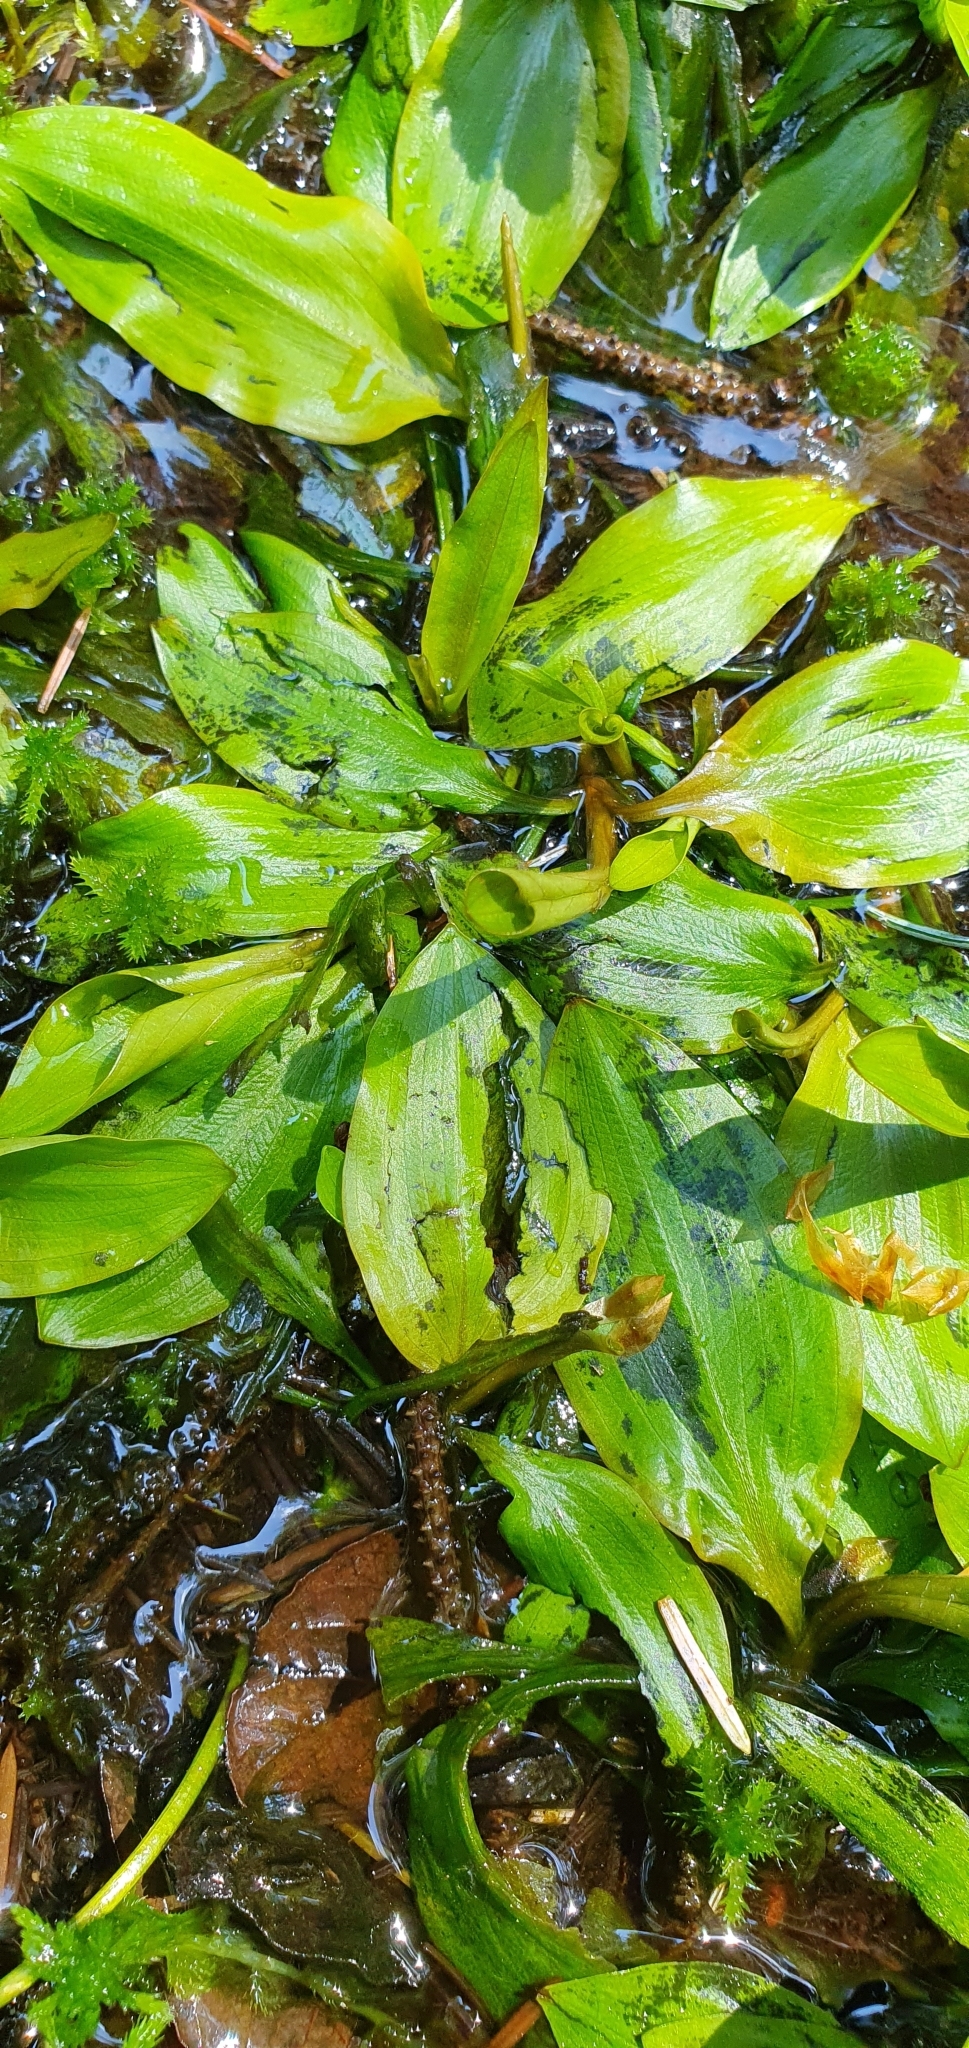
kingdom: Plantae
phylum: Tracheophyta
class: Liliopsida
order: Alismatales
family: Potamogetonaceae
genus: Potamogeton
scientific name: Potamogeton polygonifolius
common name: Bog pondweed
